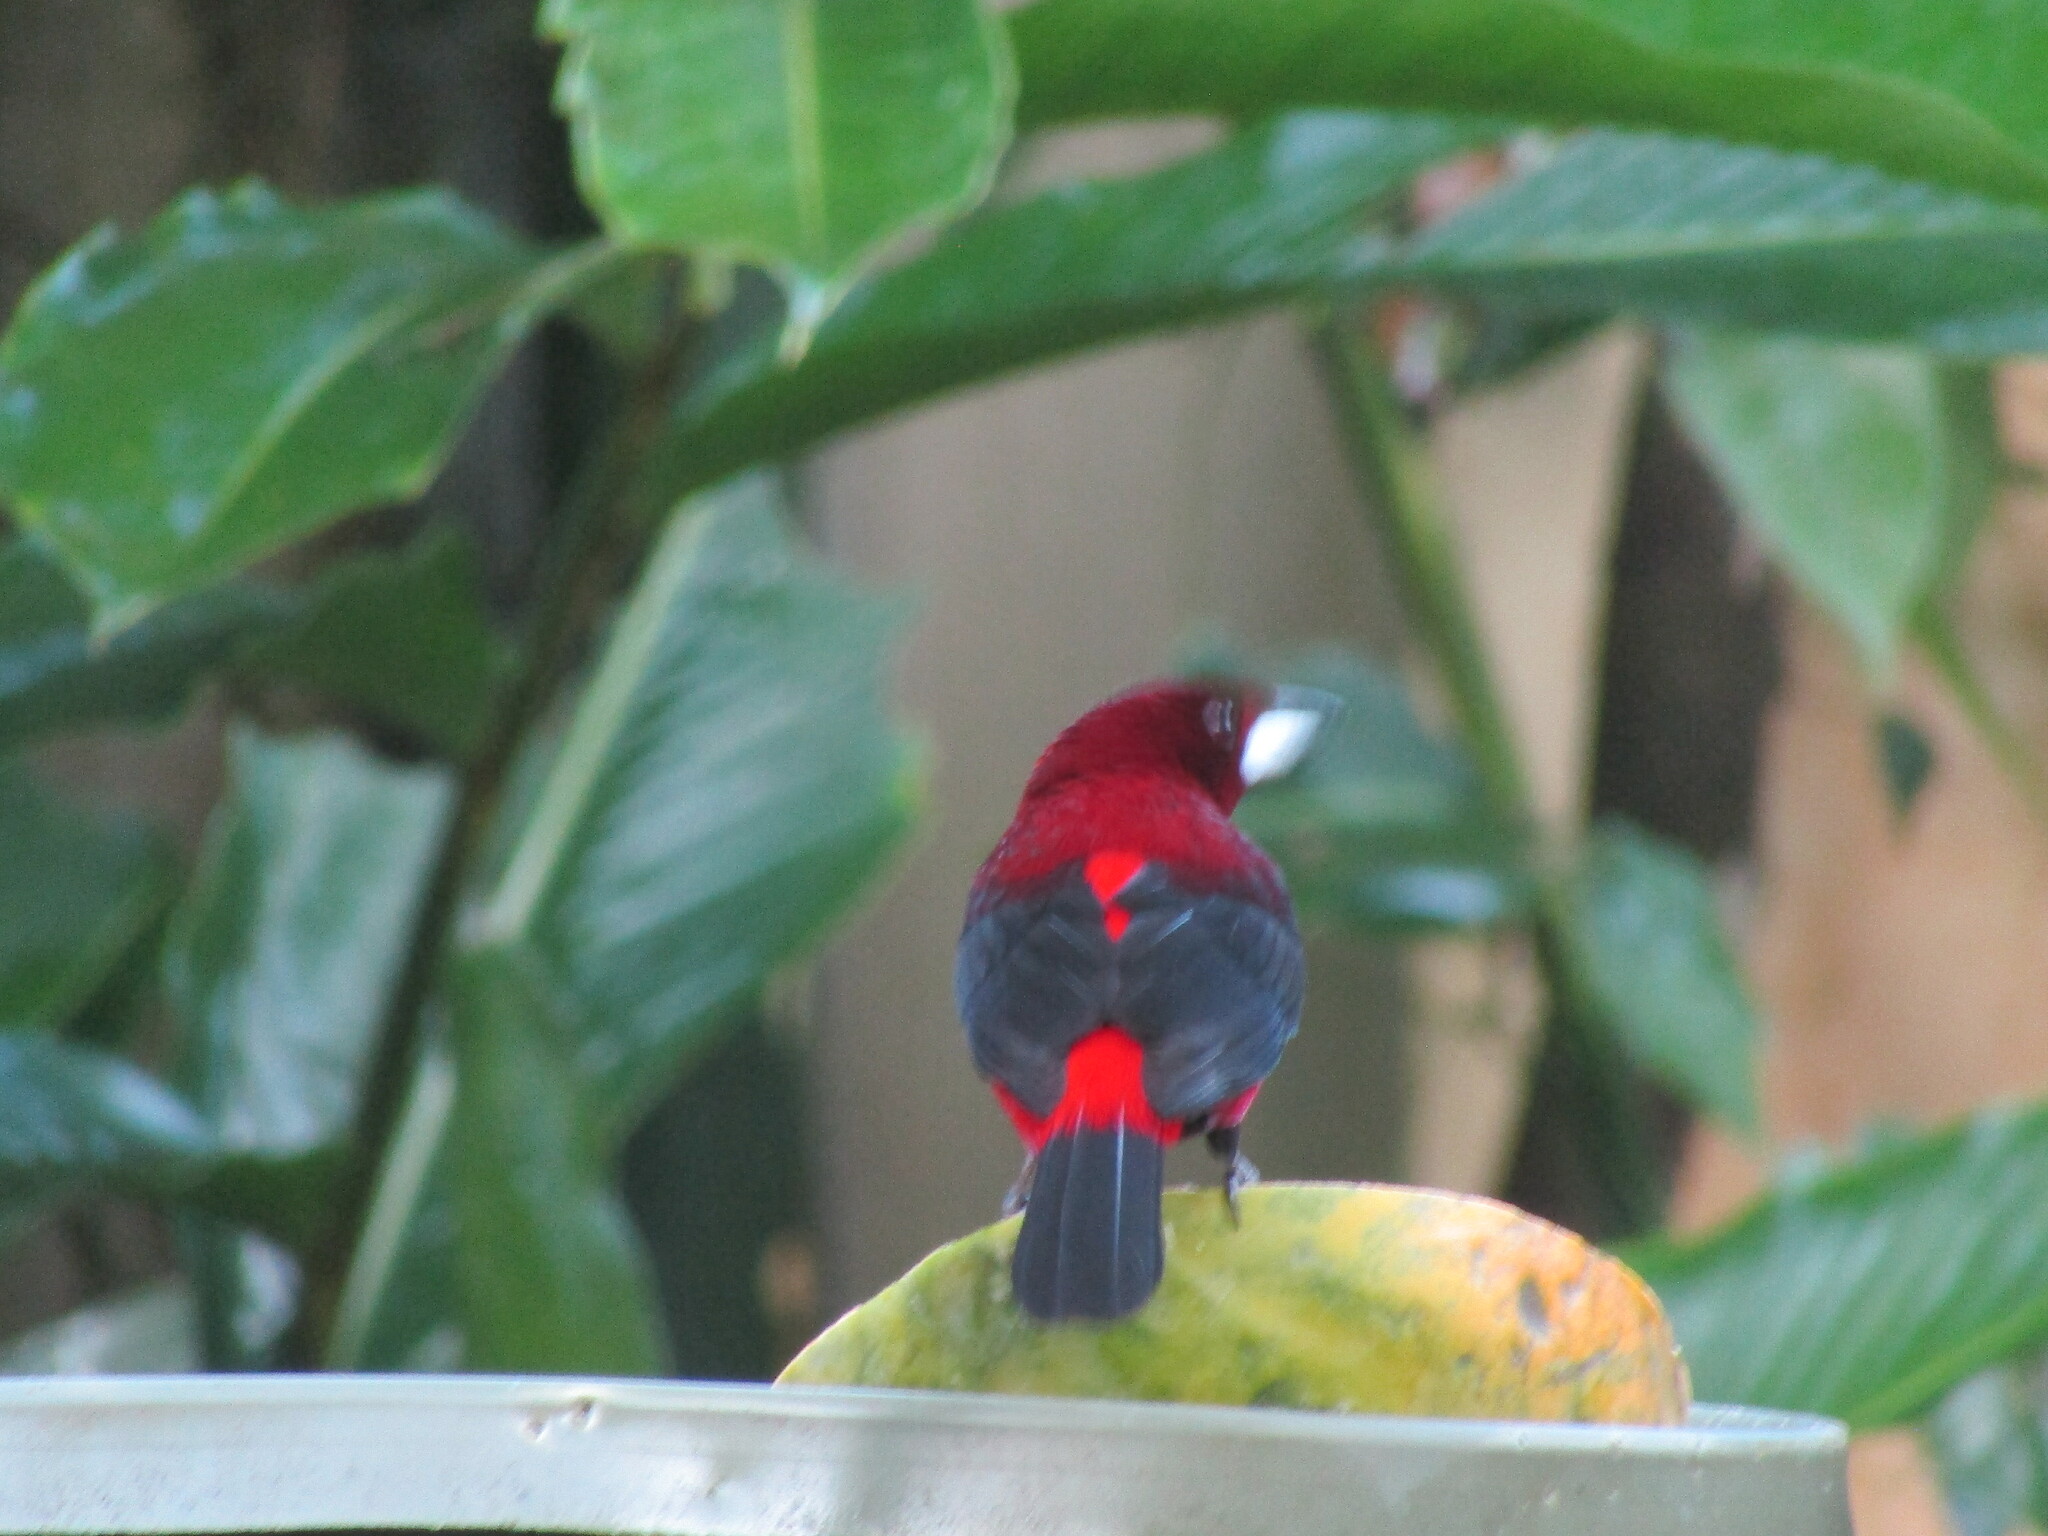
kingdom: Animalia
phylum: Chordata
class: Aves
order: Passeriformes
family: Thraupidae
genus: Ramphocelus
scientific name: Ramphocelus dimidiatus
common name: Crimson-backed tanager
